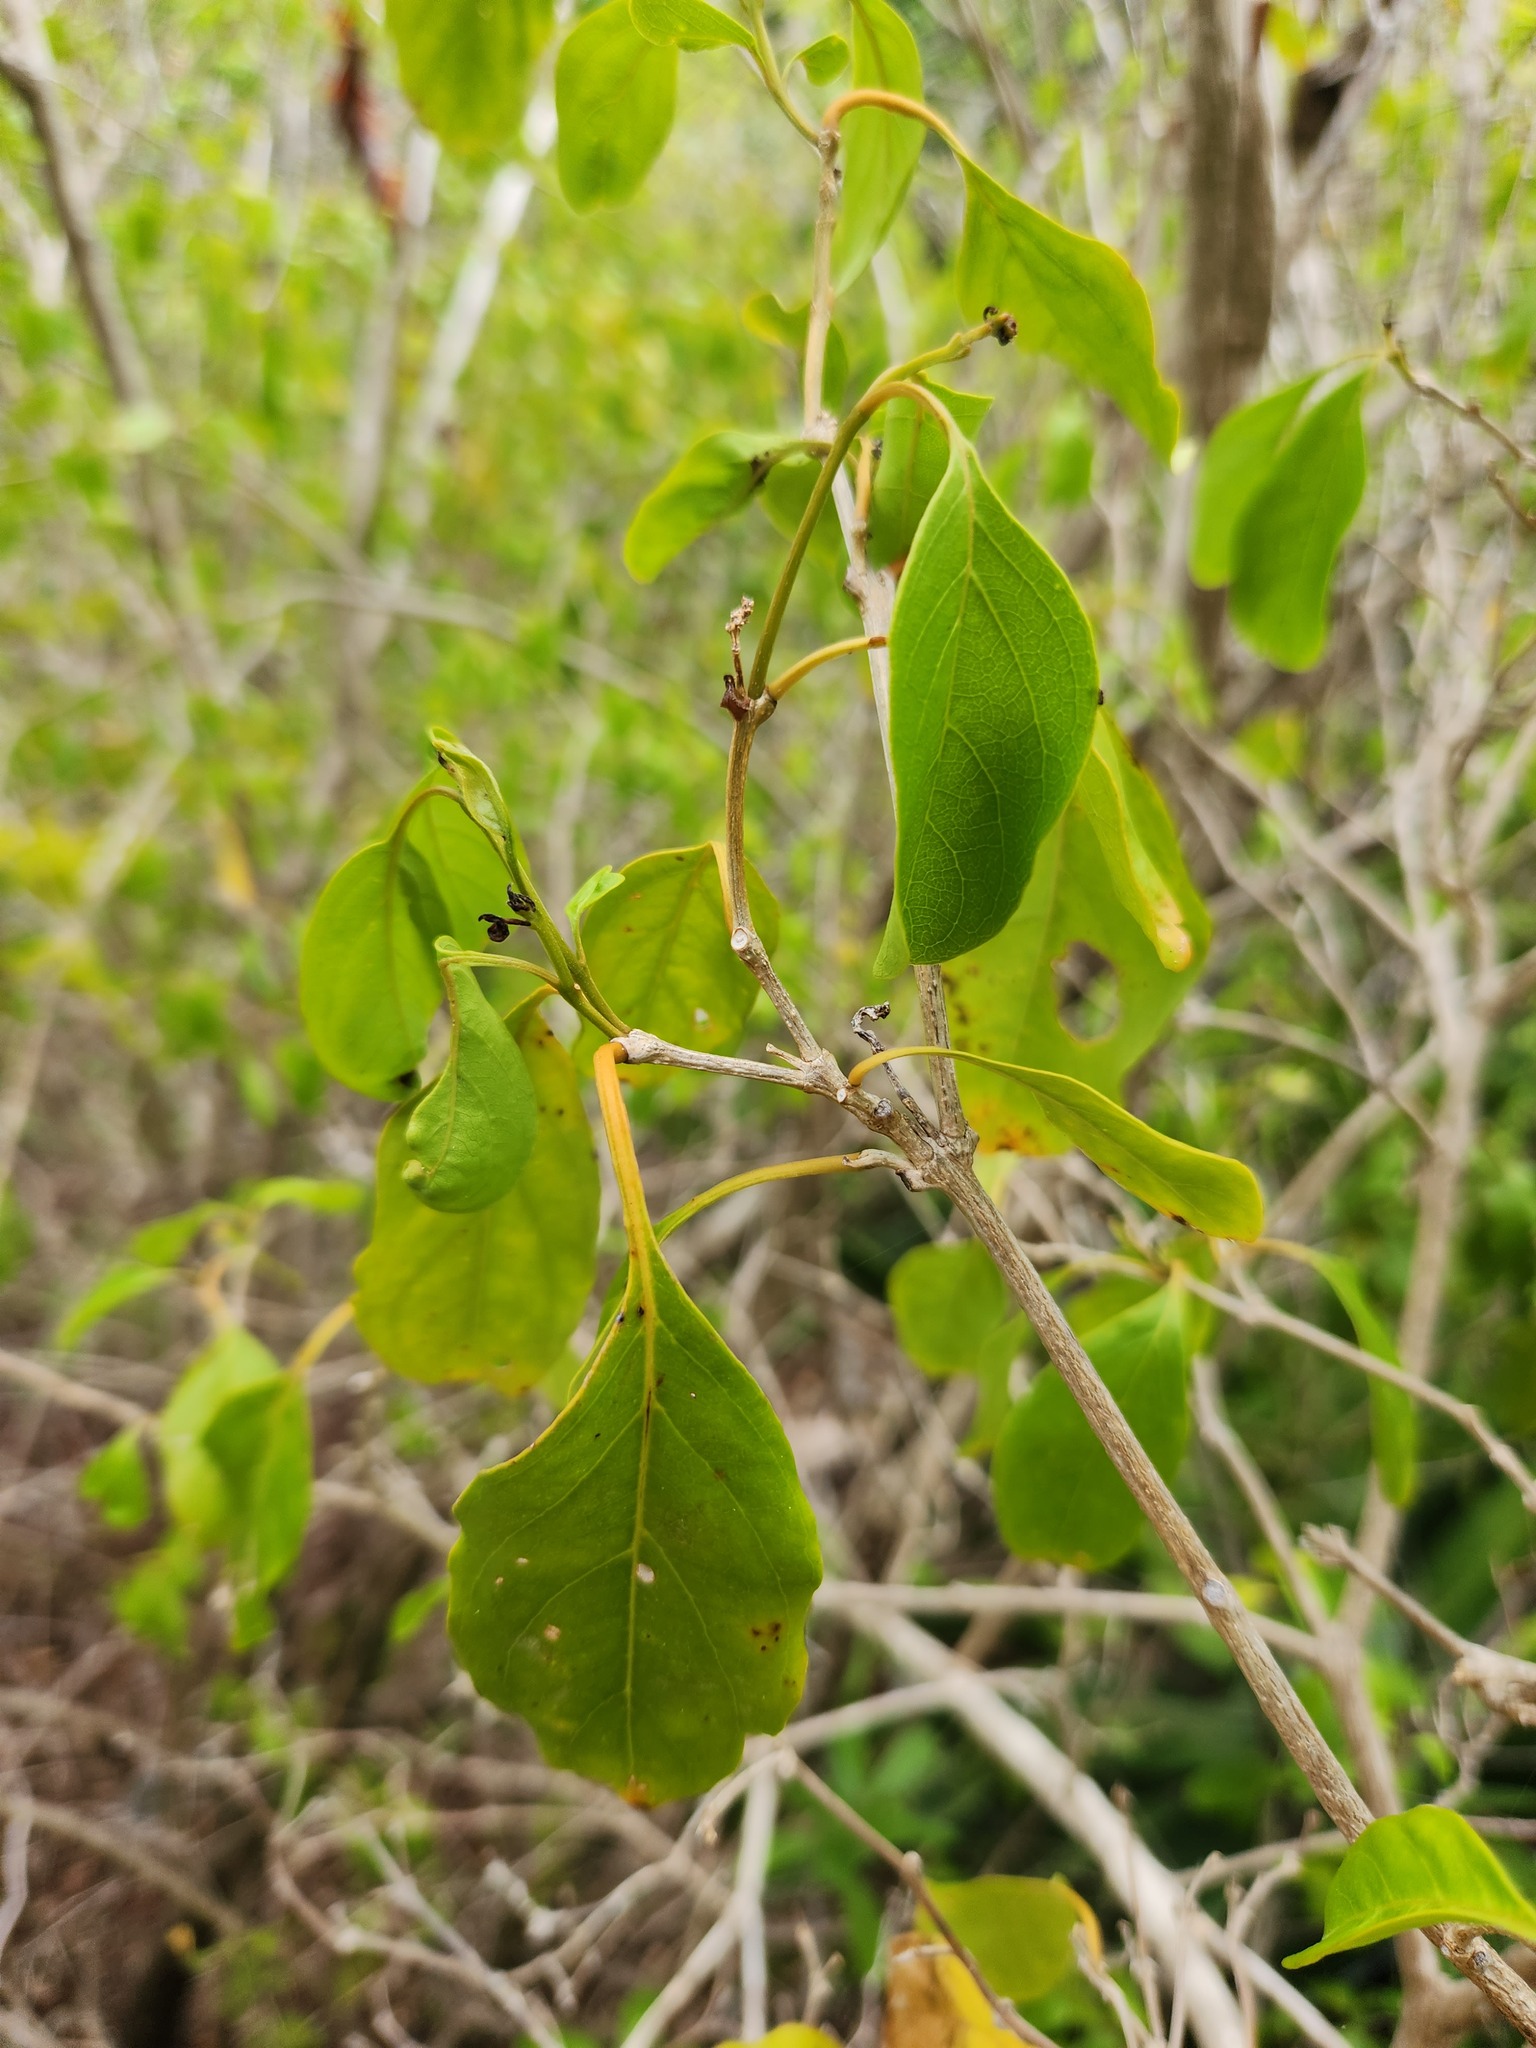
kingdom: Plantae
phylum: Tracheophyta
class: Magnoliopsida
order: Lamiales
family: Verbenaceae
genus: Citharexylum
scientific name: Citharexylum spinosum
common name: Fiddlewood
